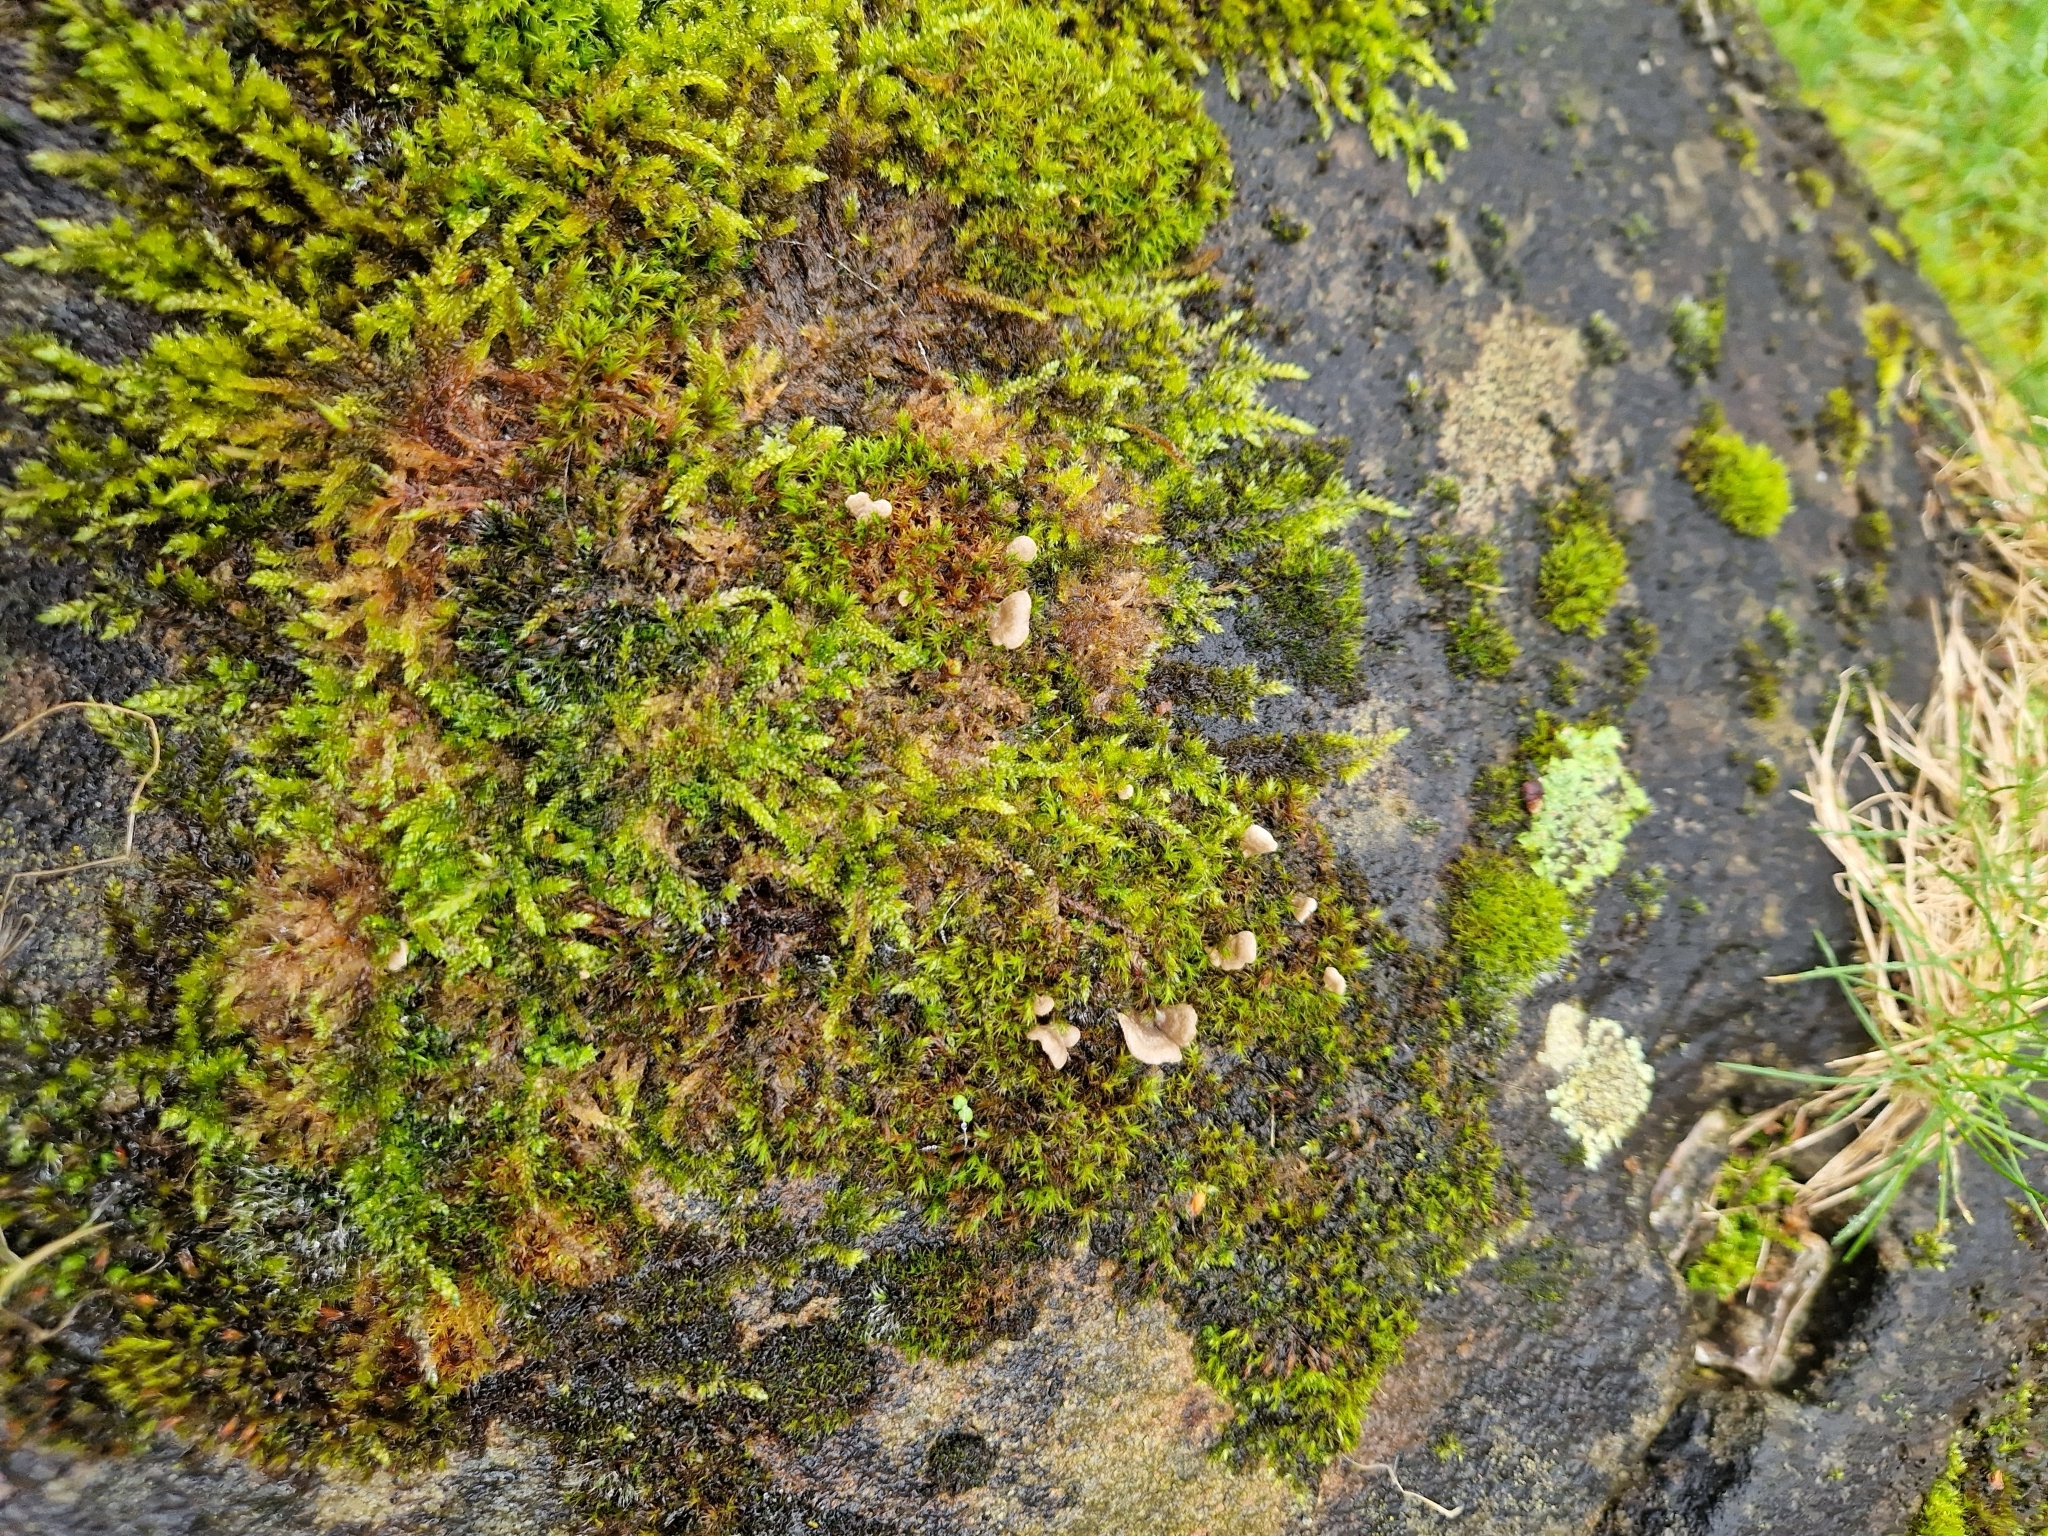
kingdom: Fungi
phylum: Basidiomycota
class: Agaricomycetes
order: Agaricales
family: Hygrophoraceae
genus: Arrhenia
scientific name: Arrhenia retiruga
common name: Small moss oysterling
